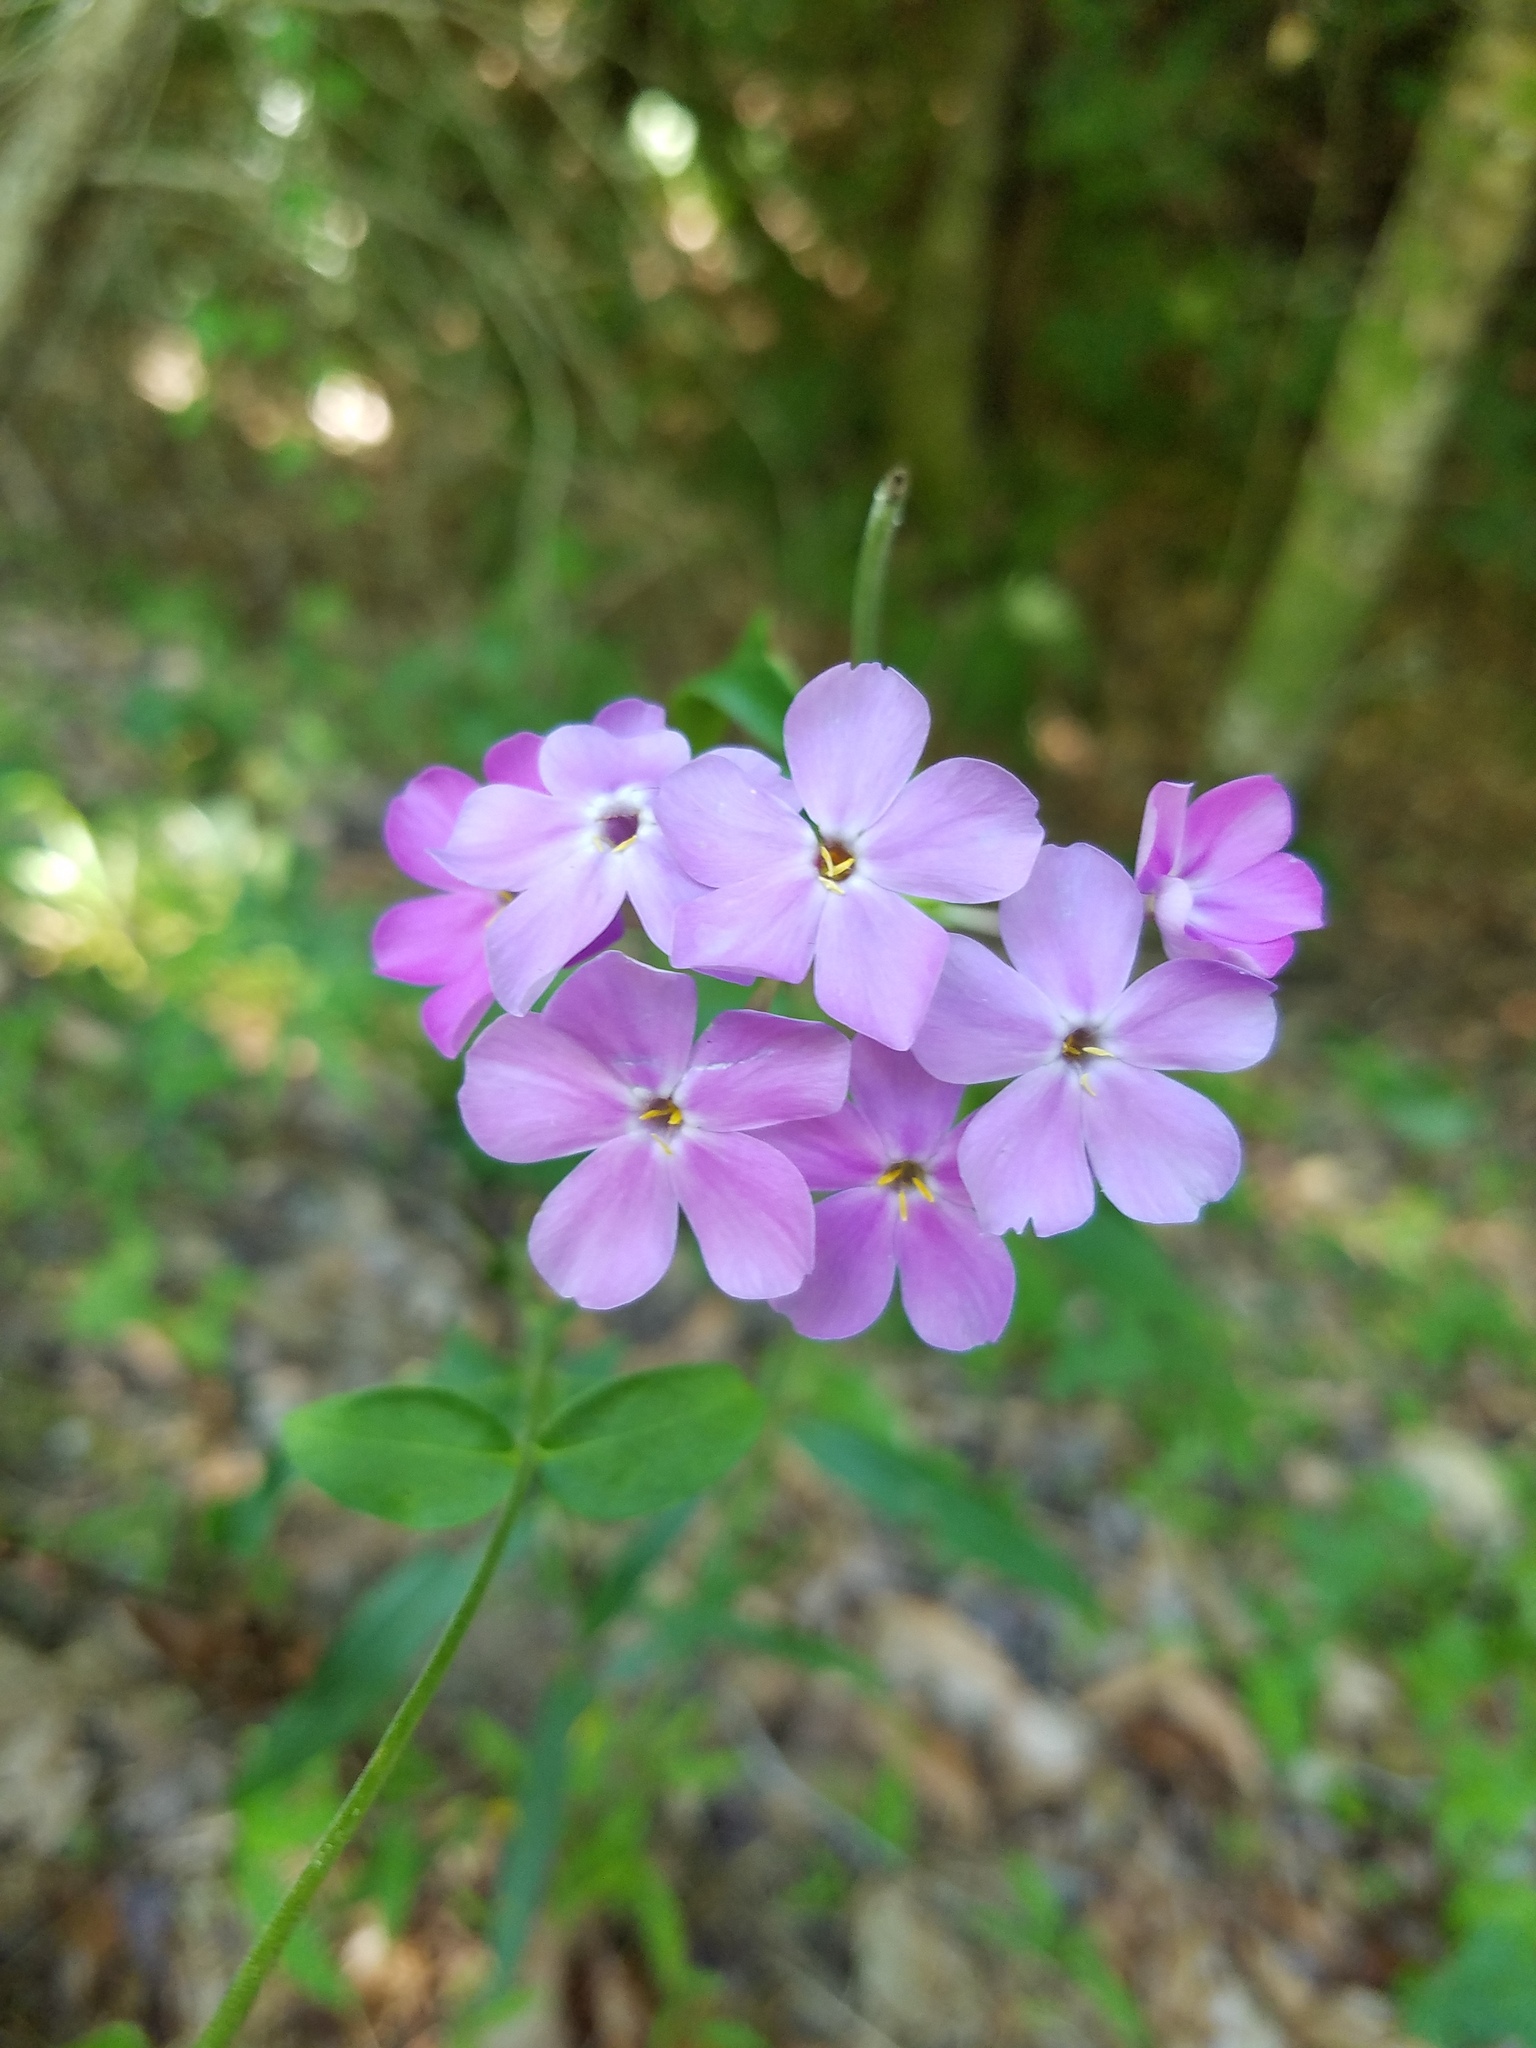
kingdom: Plantae
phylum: Tracheophyta
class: Magnoliopsida
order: Ericales
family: Polemoniaceae
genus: Phlox
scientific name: Phlox carolina
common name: Thick-leaf phlox
